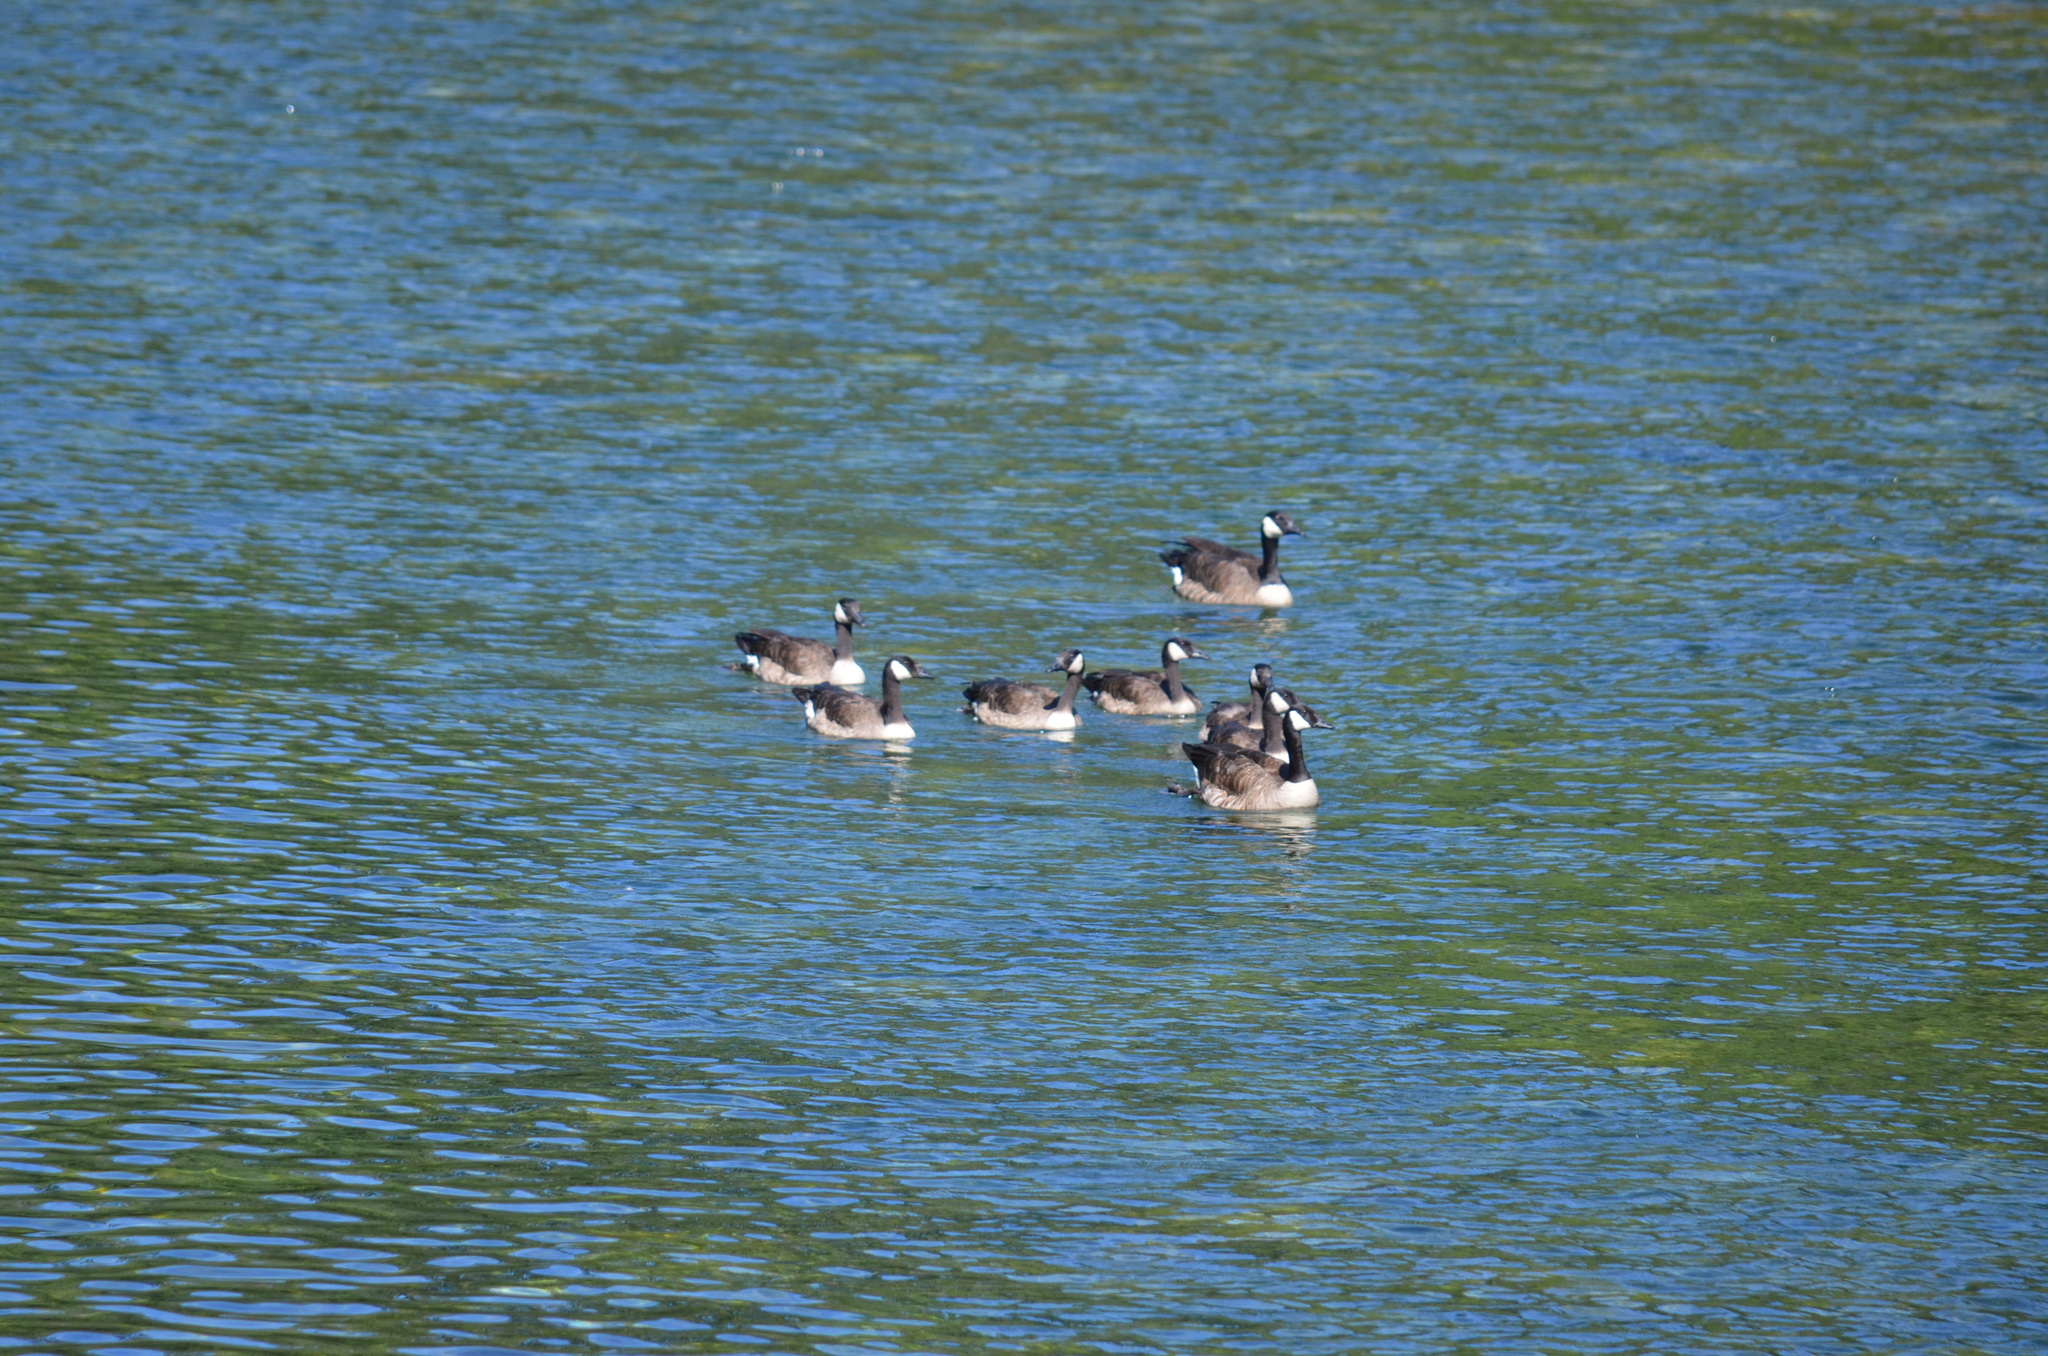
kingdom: Animalia
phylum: Chordata
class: Aves
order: Anseriformes
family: Anatidae
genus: Branta
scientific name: Branta canadensis
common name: Canada goose
